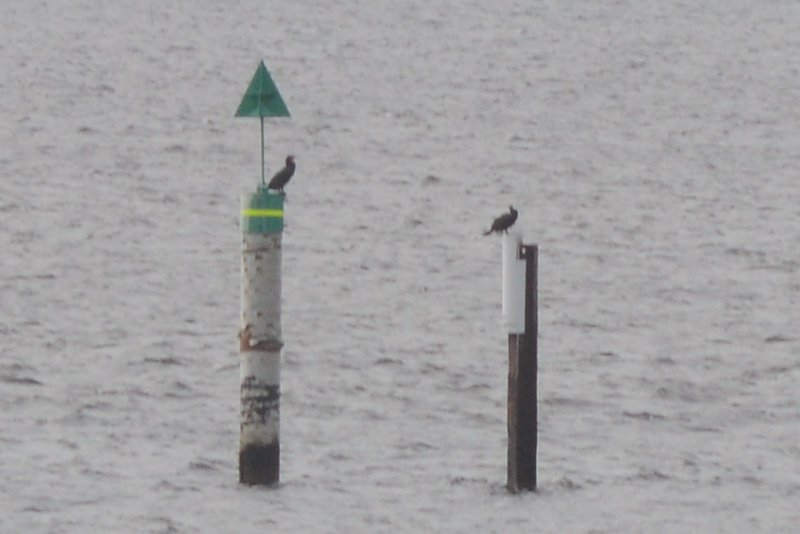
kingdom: Animalia
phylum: Chordata
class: Aves
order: Suliformes
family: Phalacrocoracidae
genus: Phalacrocorax
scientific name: Phalacrocorax carbo
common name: Great cormorant
